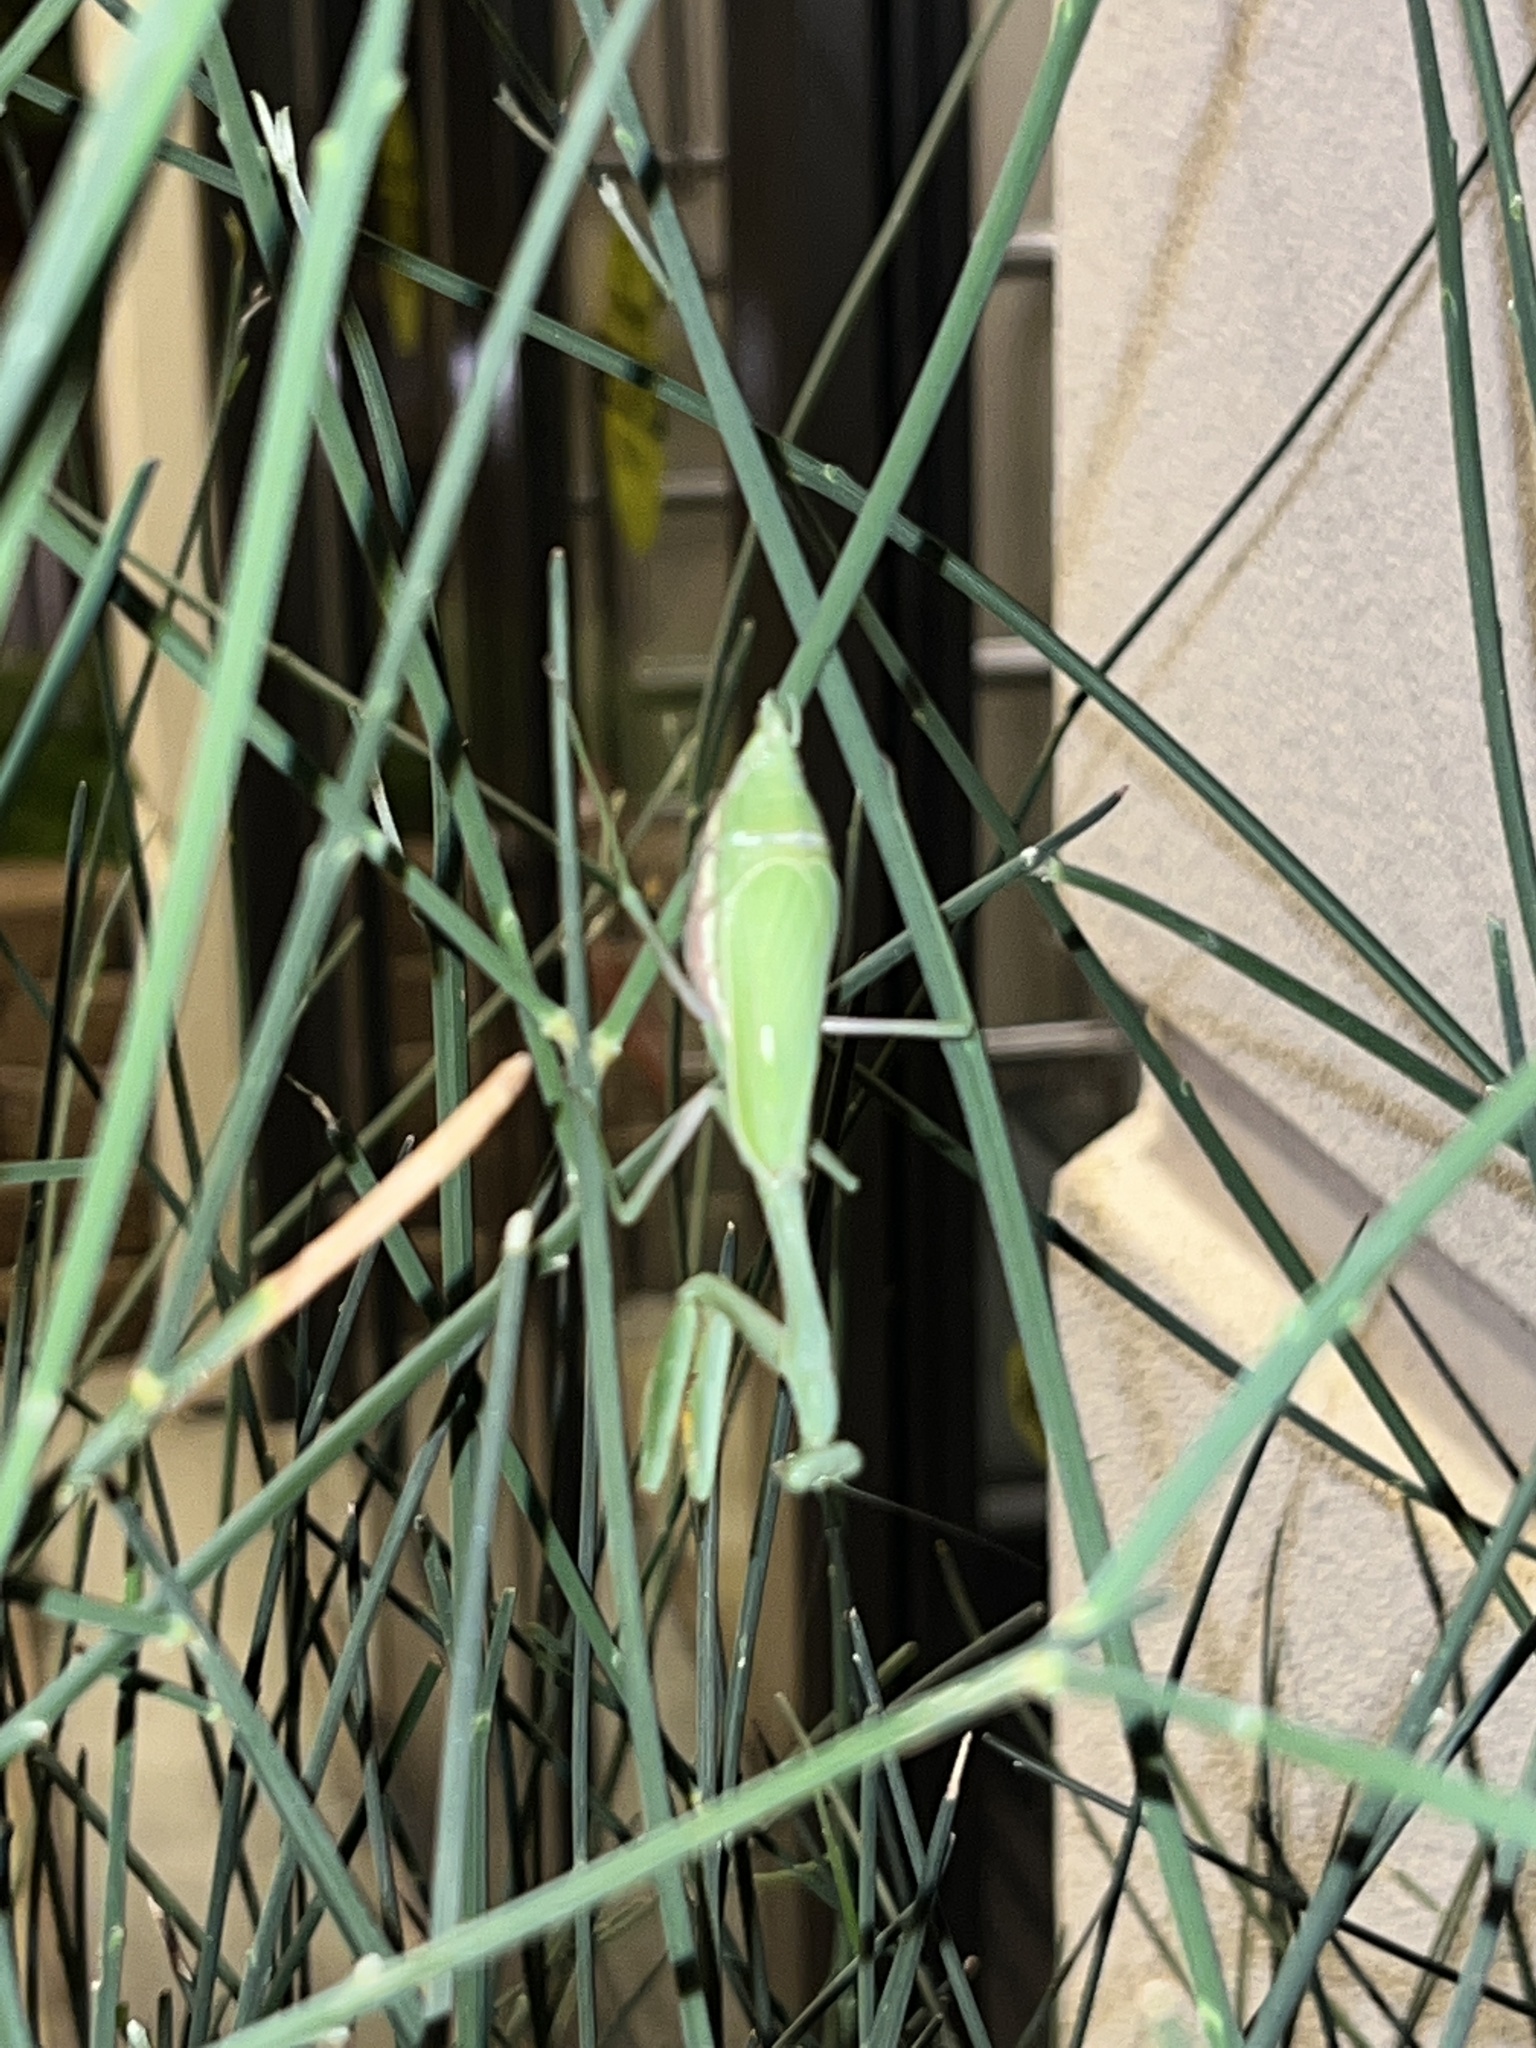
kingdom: Animalia
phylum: Arthropoda
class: Insecta
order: Mantodea
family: Mantidae
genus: Stagmomantis
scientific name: Stagmomantis limbata
